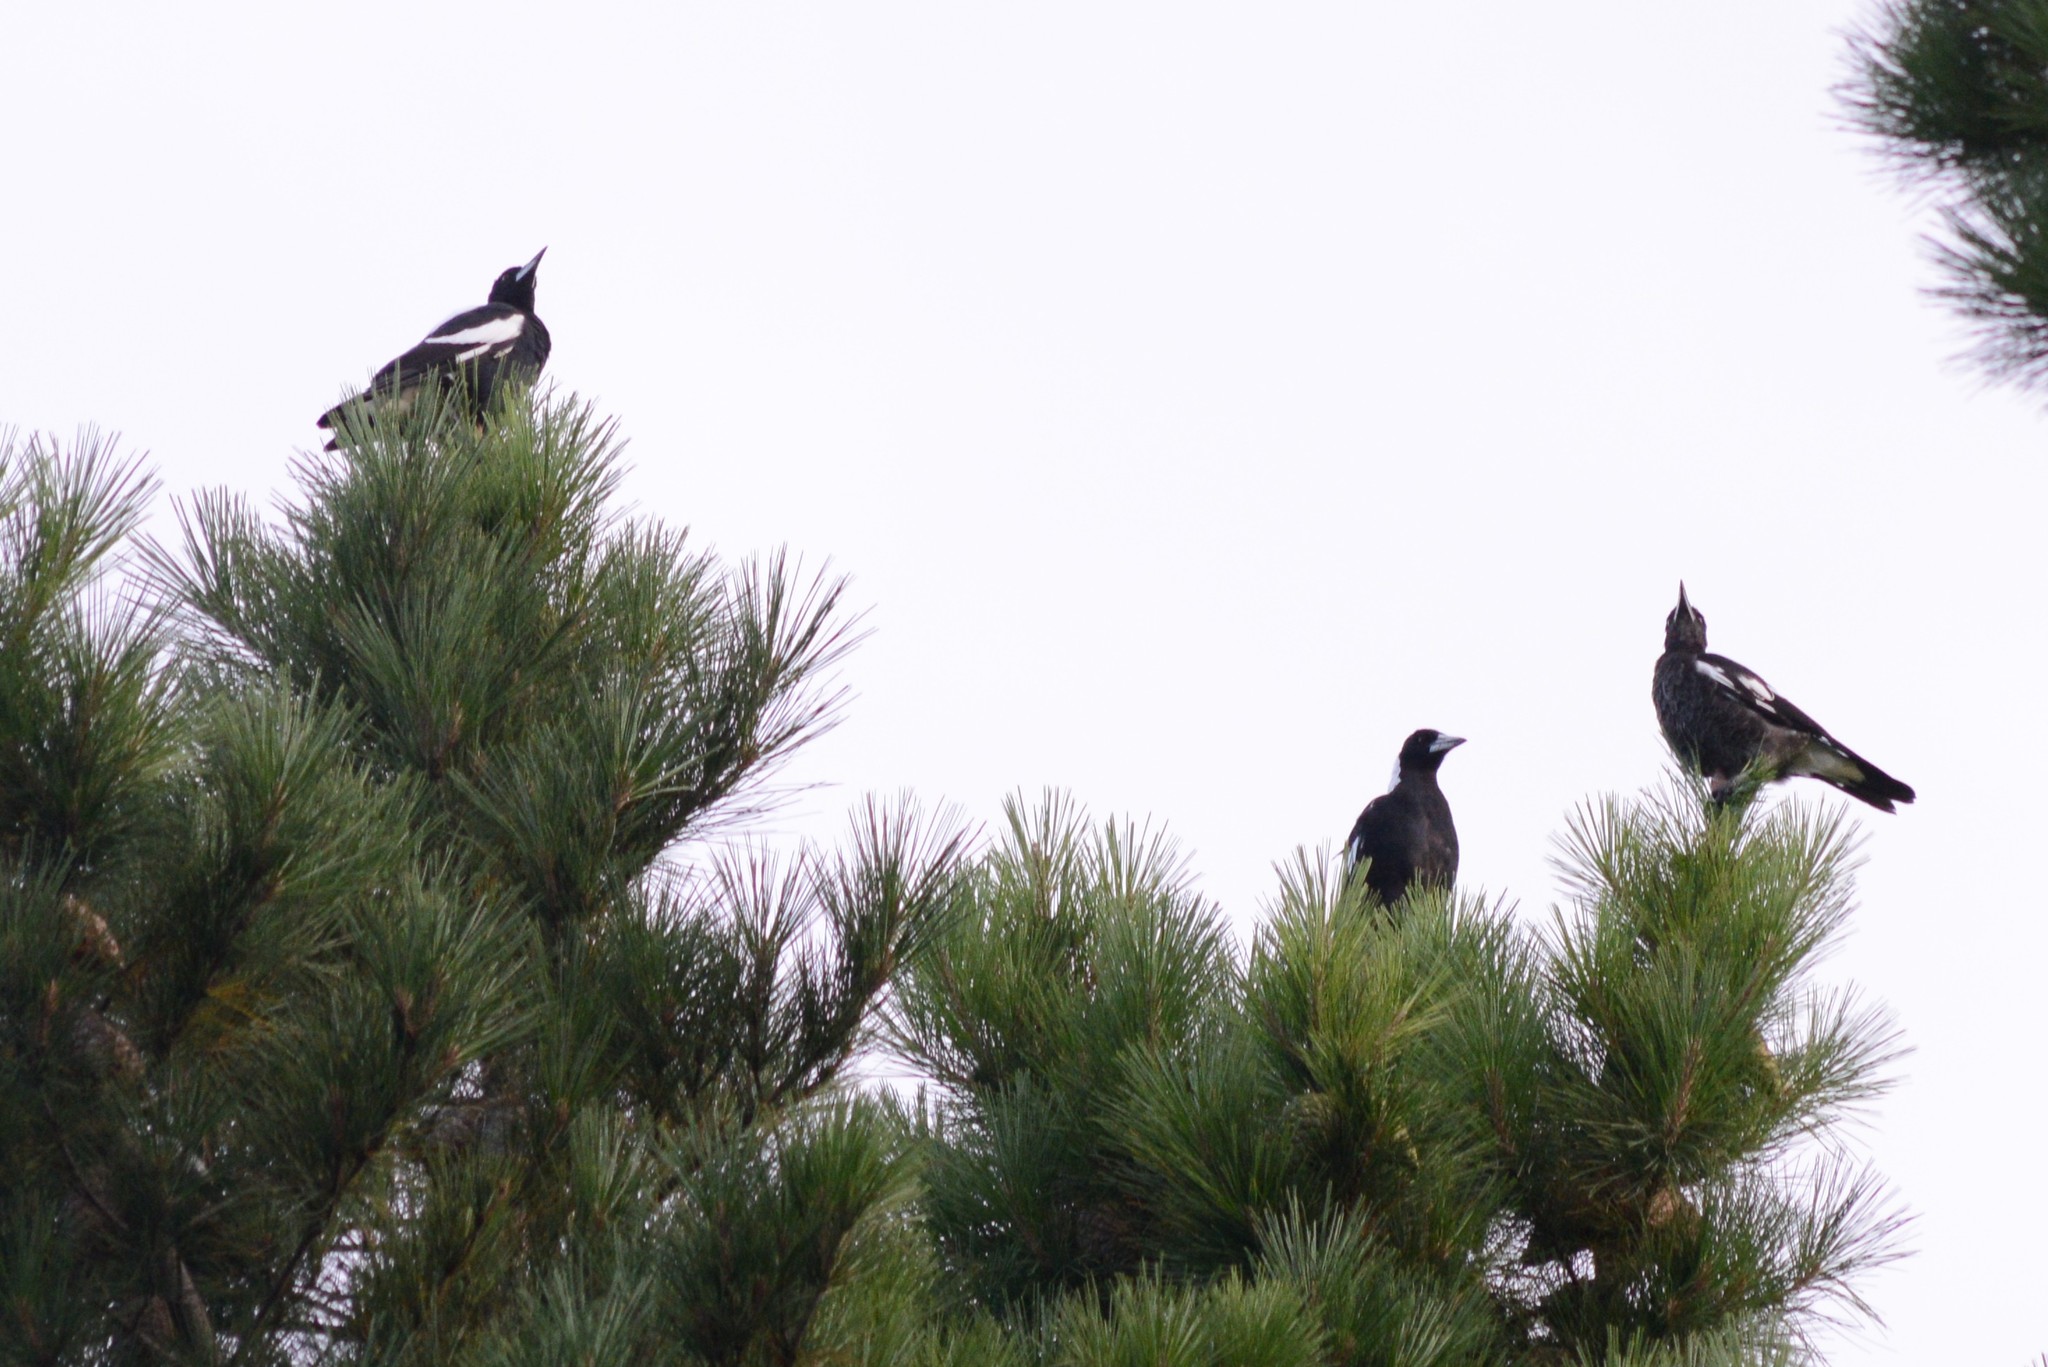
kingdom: Animalia
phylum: Chordata
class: Aves
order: Passeriformes
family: Cracticidae
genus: Gymnorhina
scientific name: Gymnorhina tibicen
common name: Australian magpie
